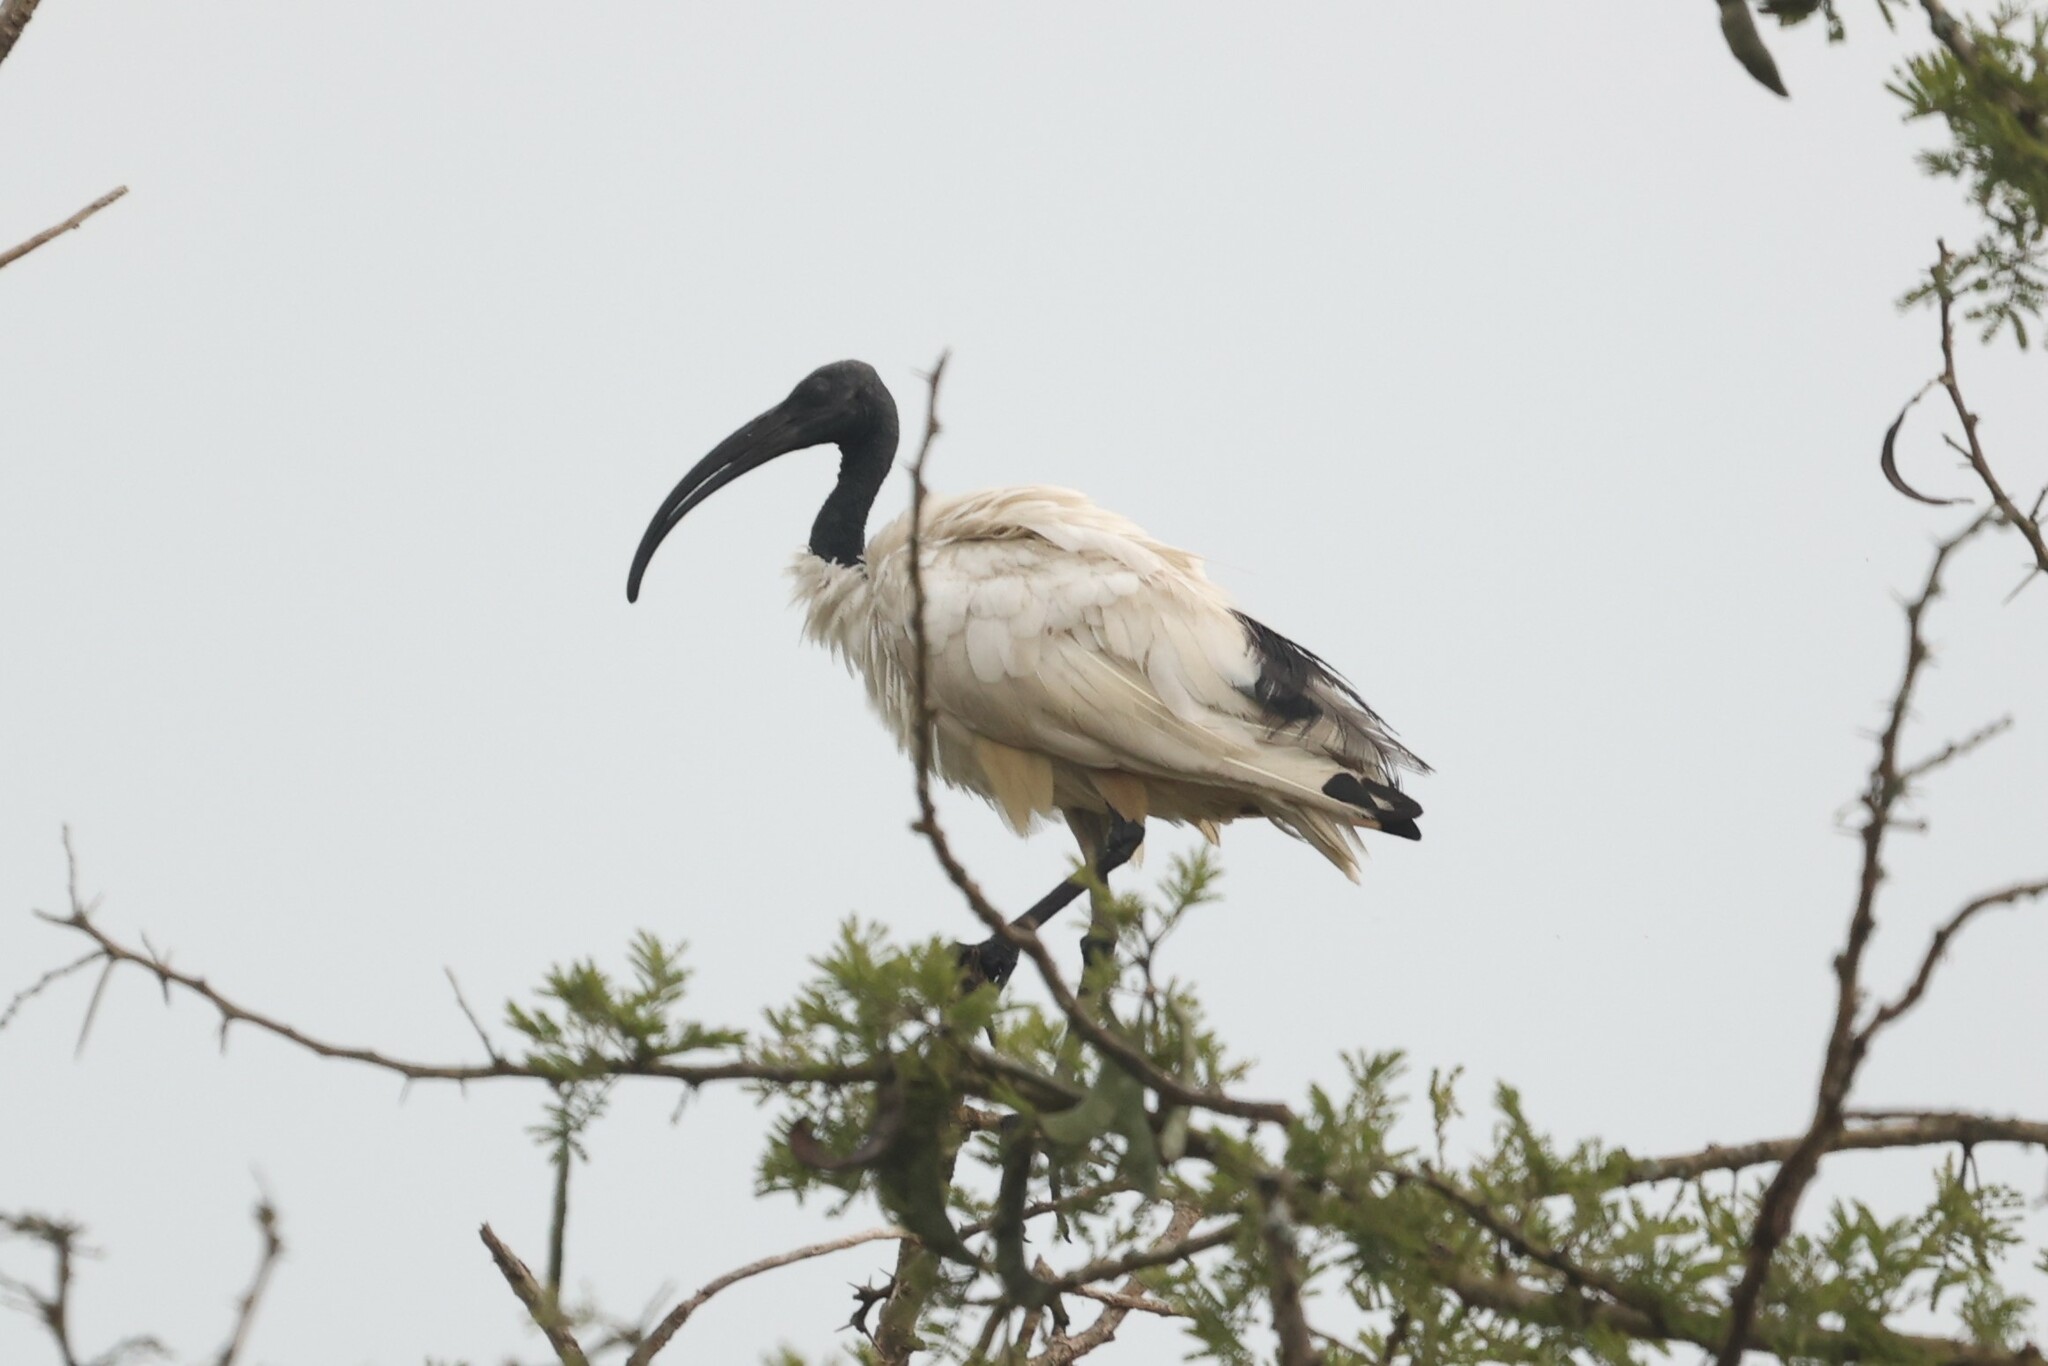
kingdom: Animalia
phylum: Chordata
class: Aves
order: Pelecaniformes
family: Threskiornithidae
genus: Threskiornis
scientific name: Threskiornis aethiopicus
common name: Sacred ibis
